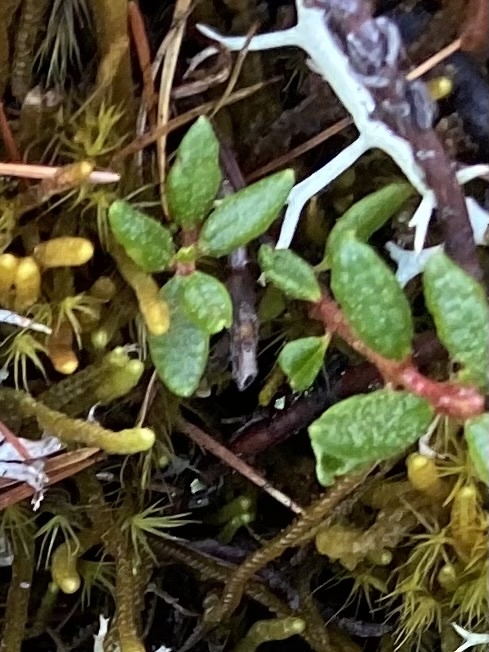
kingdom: Plantae
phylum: Tracheophyta
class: Magnoliopsida
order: Ericales
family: Ericaceae
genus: Rhododendron
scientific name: Rhododendron tomentosum
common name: Marsh labrador tea
